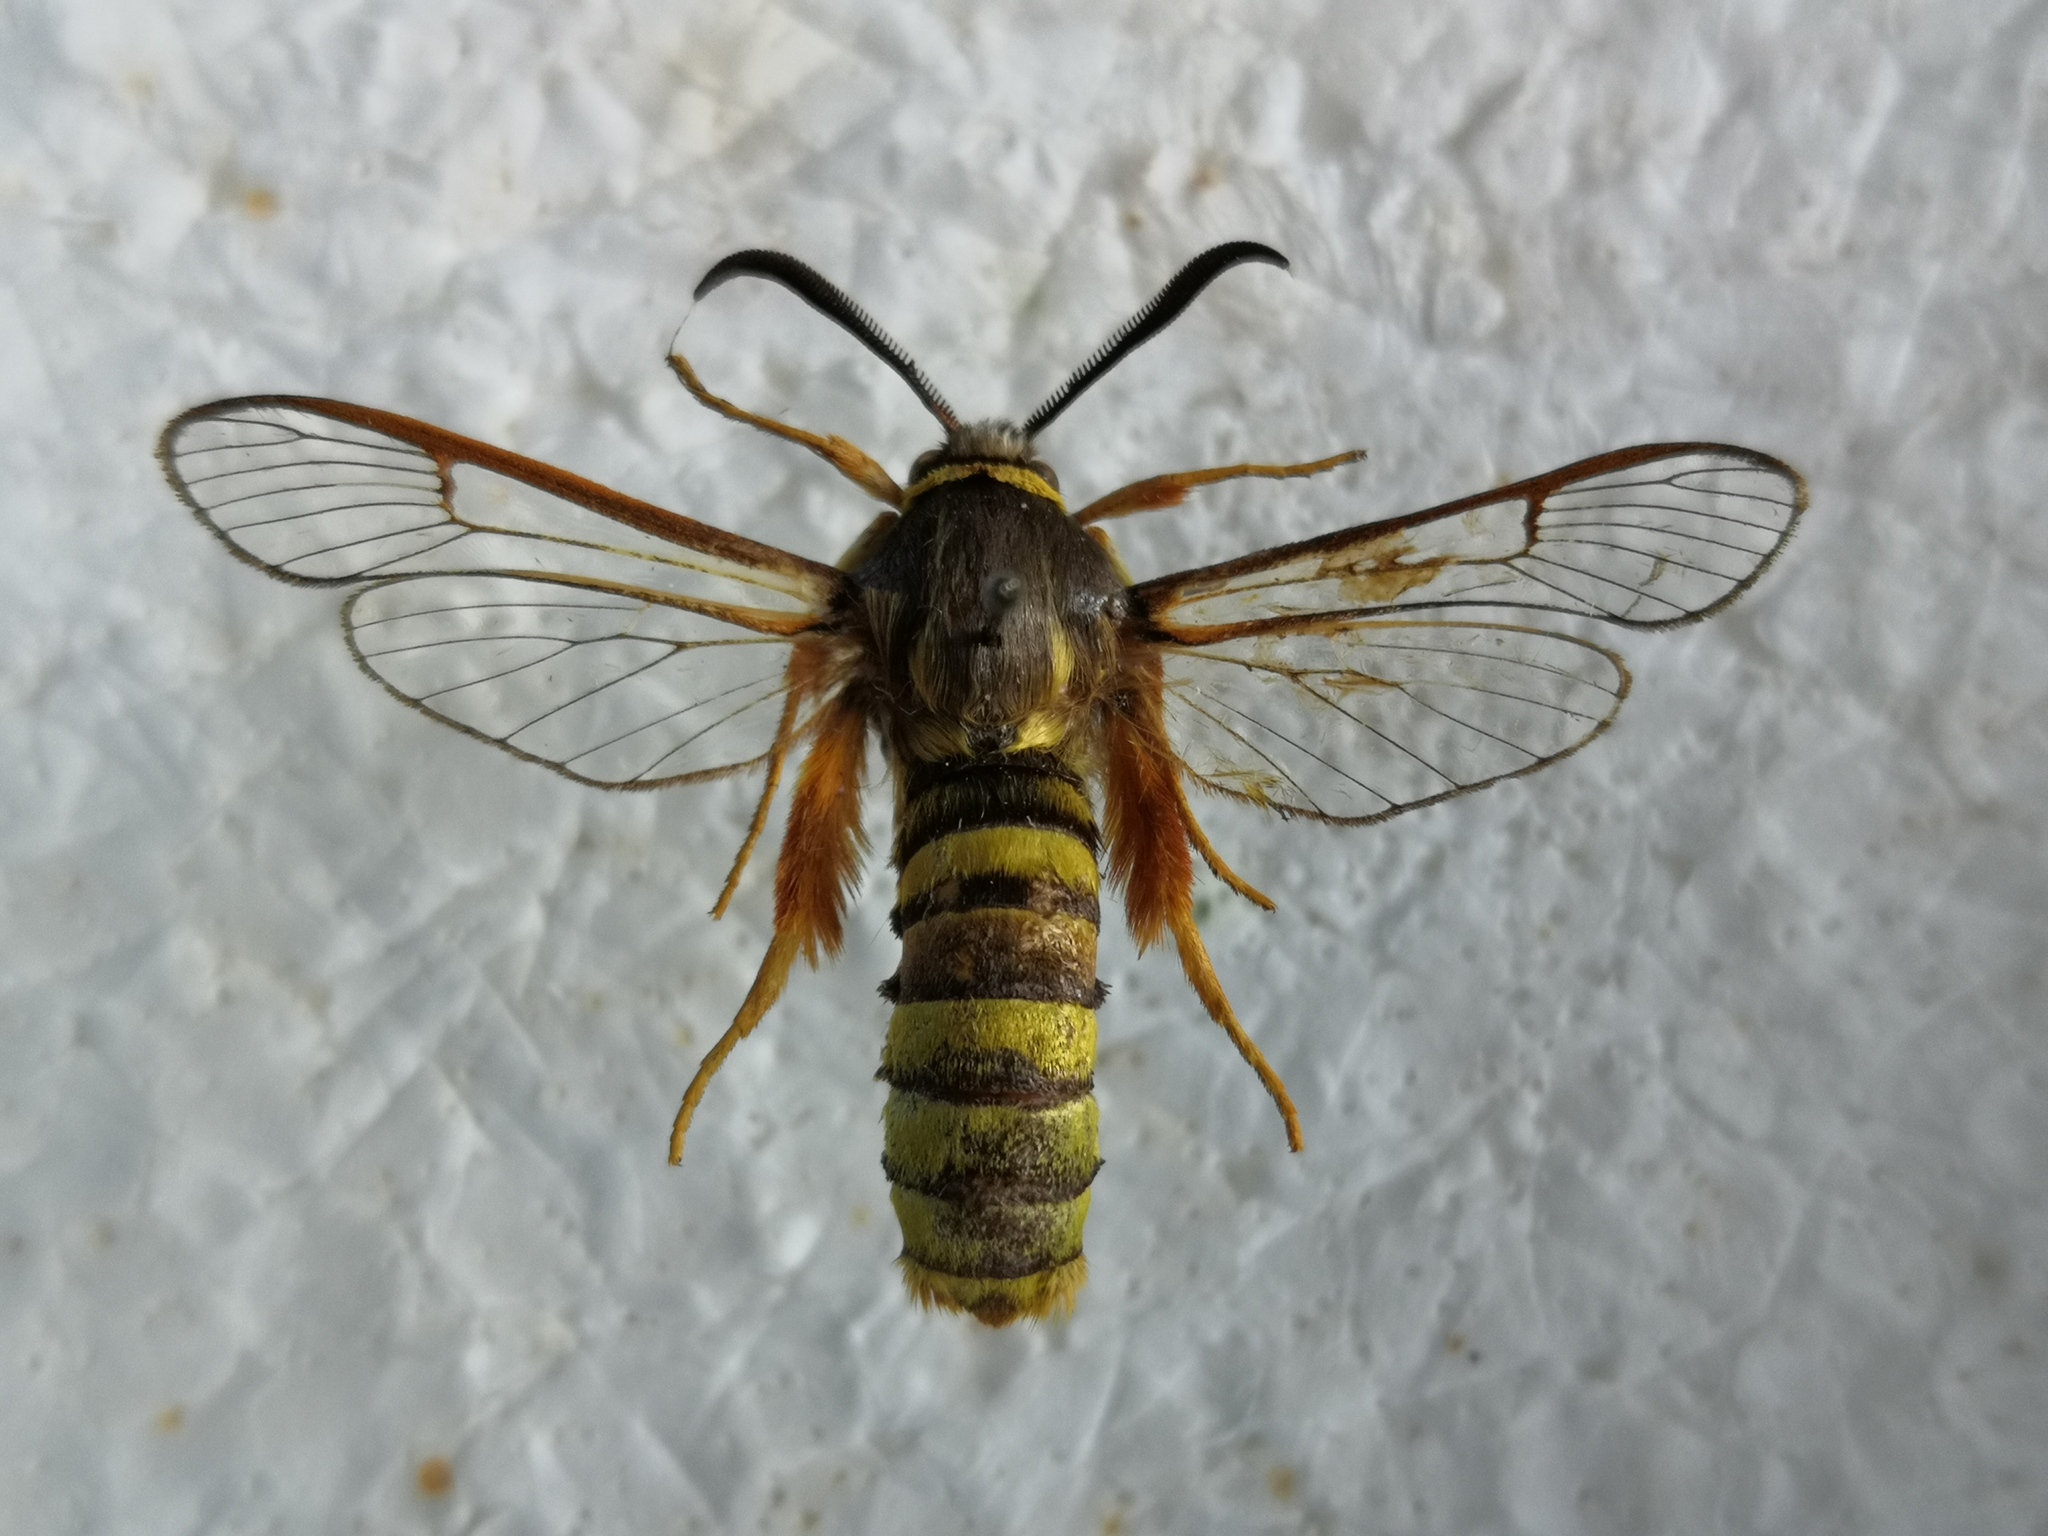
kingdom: Animalia
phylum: Arthropoda
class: Insecta
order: Lepidoptera
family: Sesiidae
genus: Sesia
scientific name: Sesia bembeciformis
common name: Lunar hornet moth
